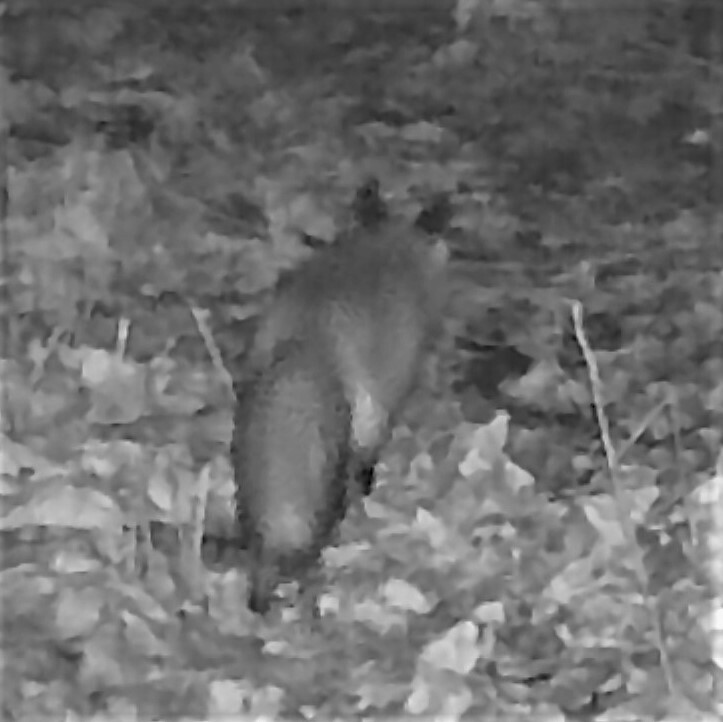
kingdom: Animalia
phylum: Chordata
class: Mammalia
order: Carnivora
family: Canidae
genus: Vulpes
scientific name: Vulpes vulpes
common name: Red fox
